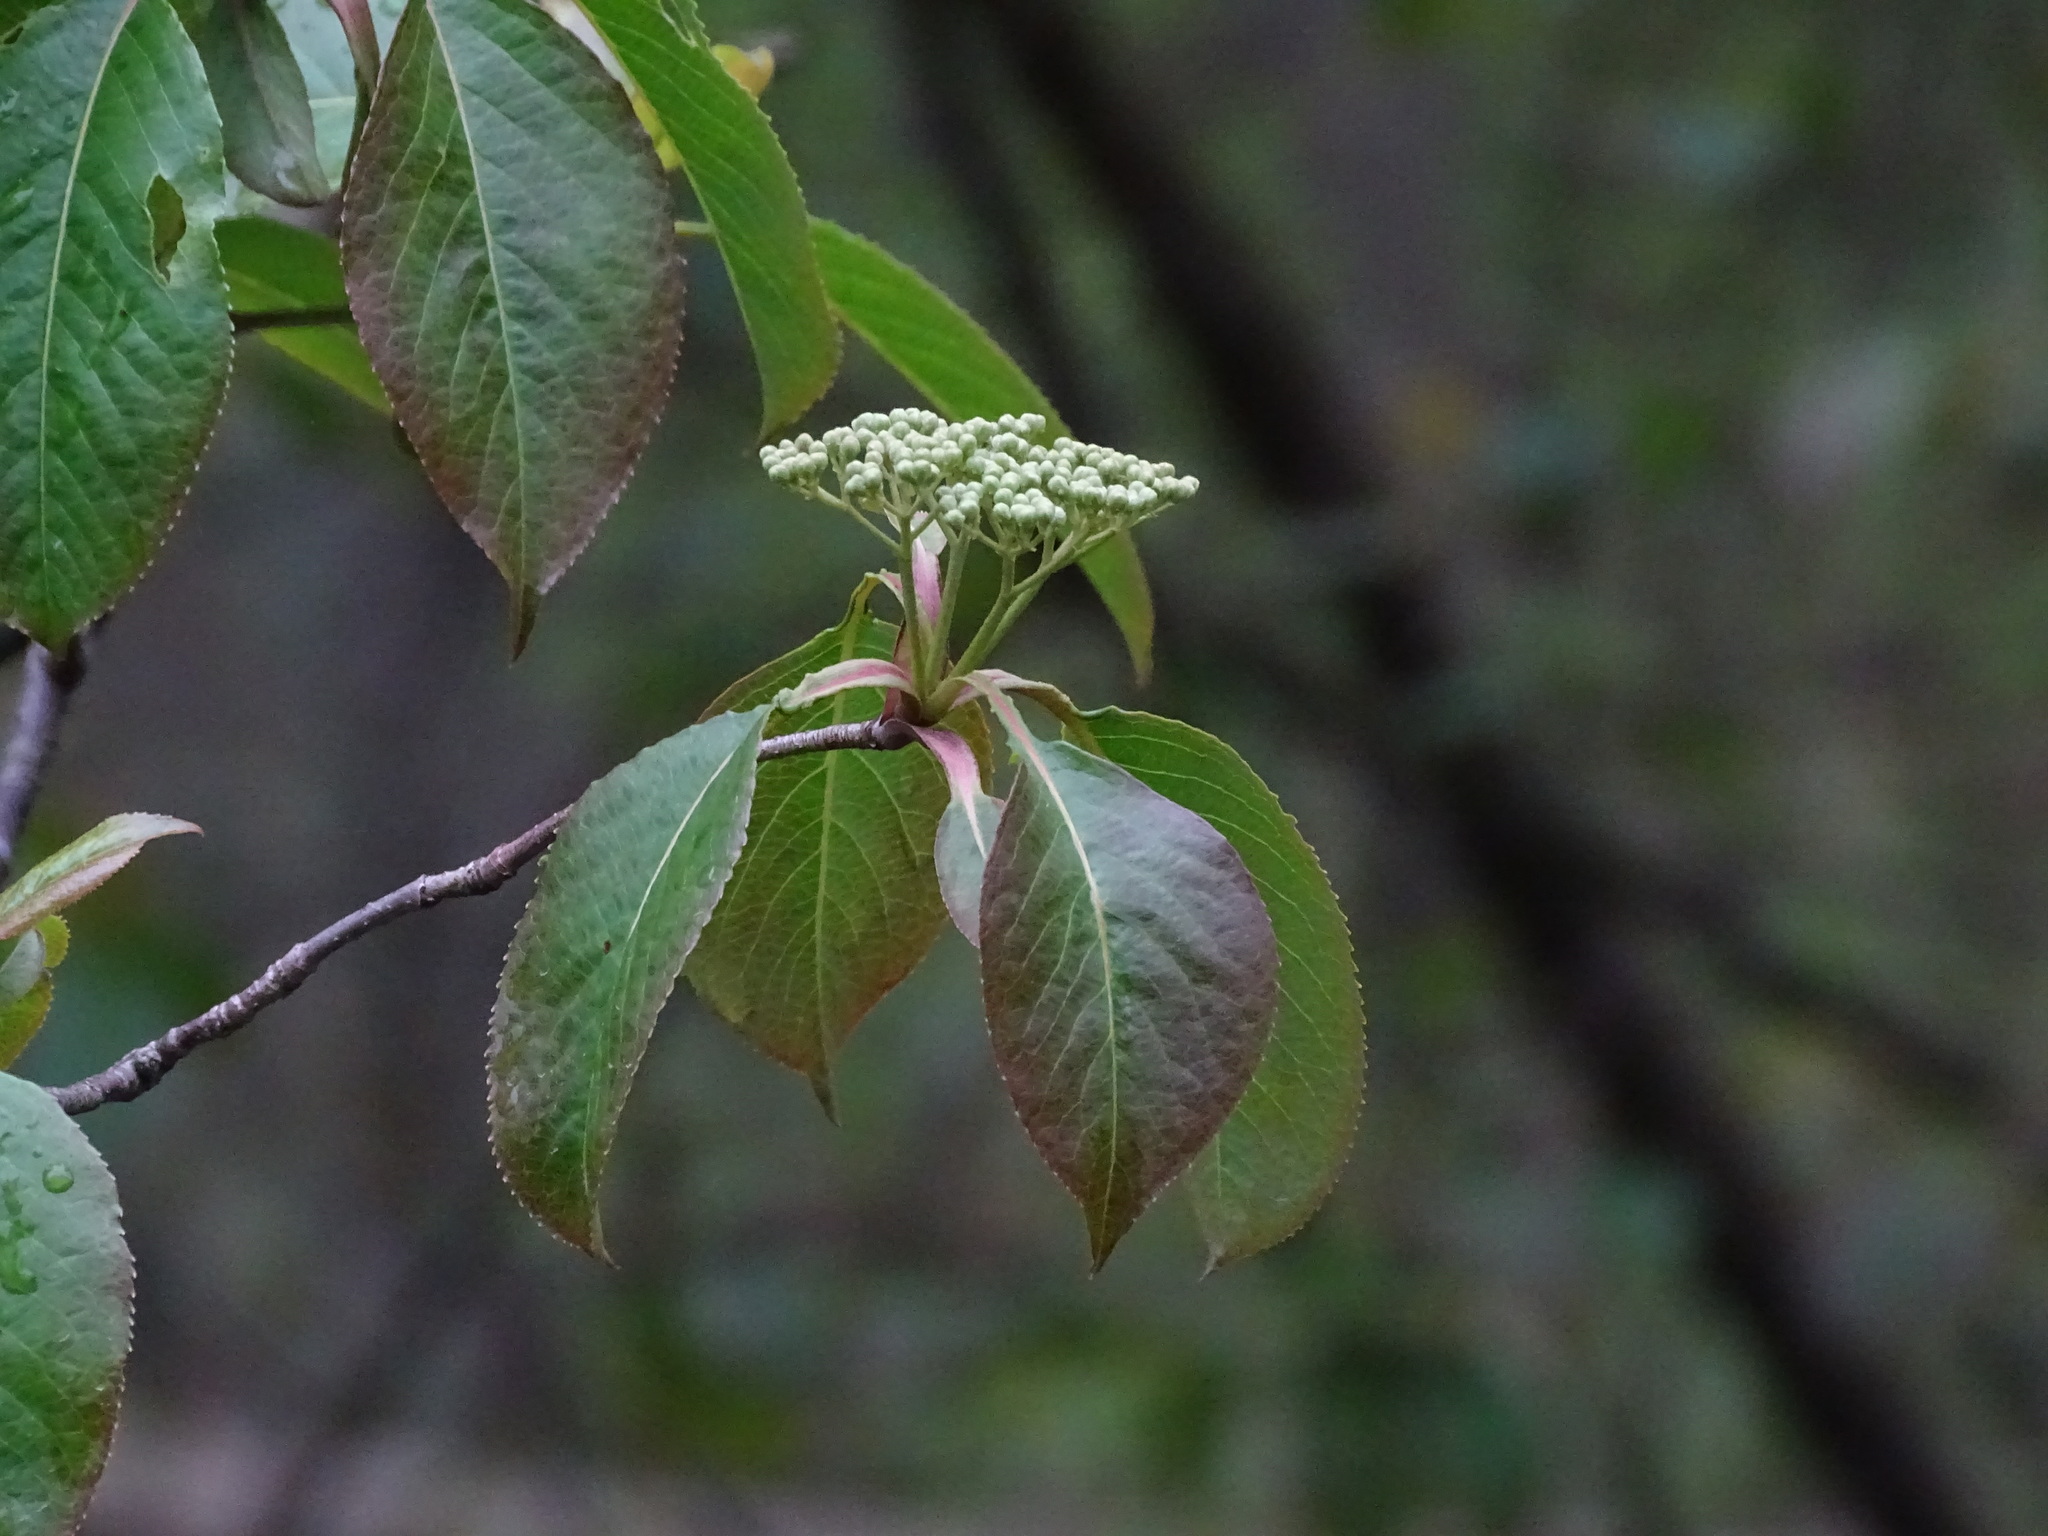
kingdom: Plantae
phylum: Tracheophyta
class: Magnoliopsida
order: Dipsacales
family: Viburnaceae
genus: Viburnum
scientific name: Viburnum lentago
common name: Black haw
